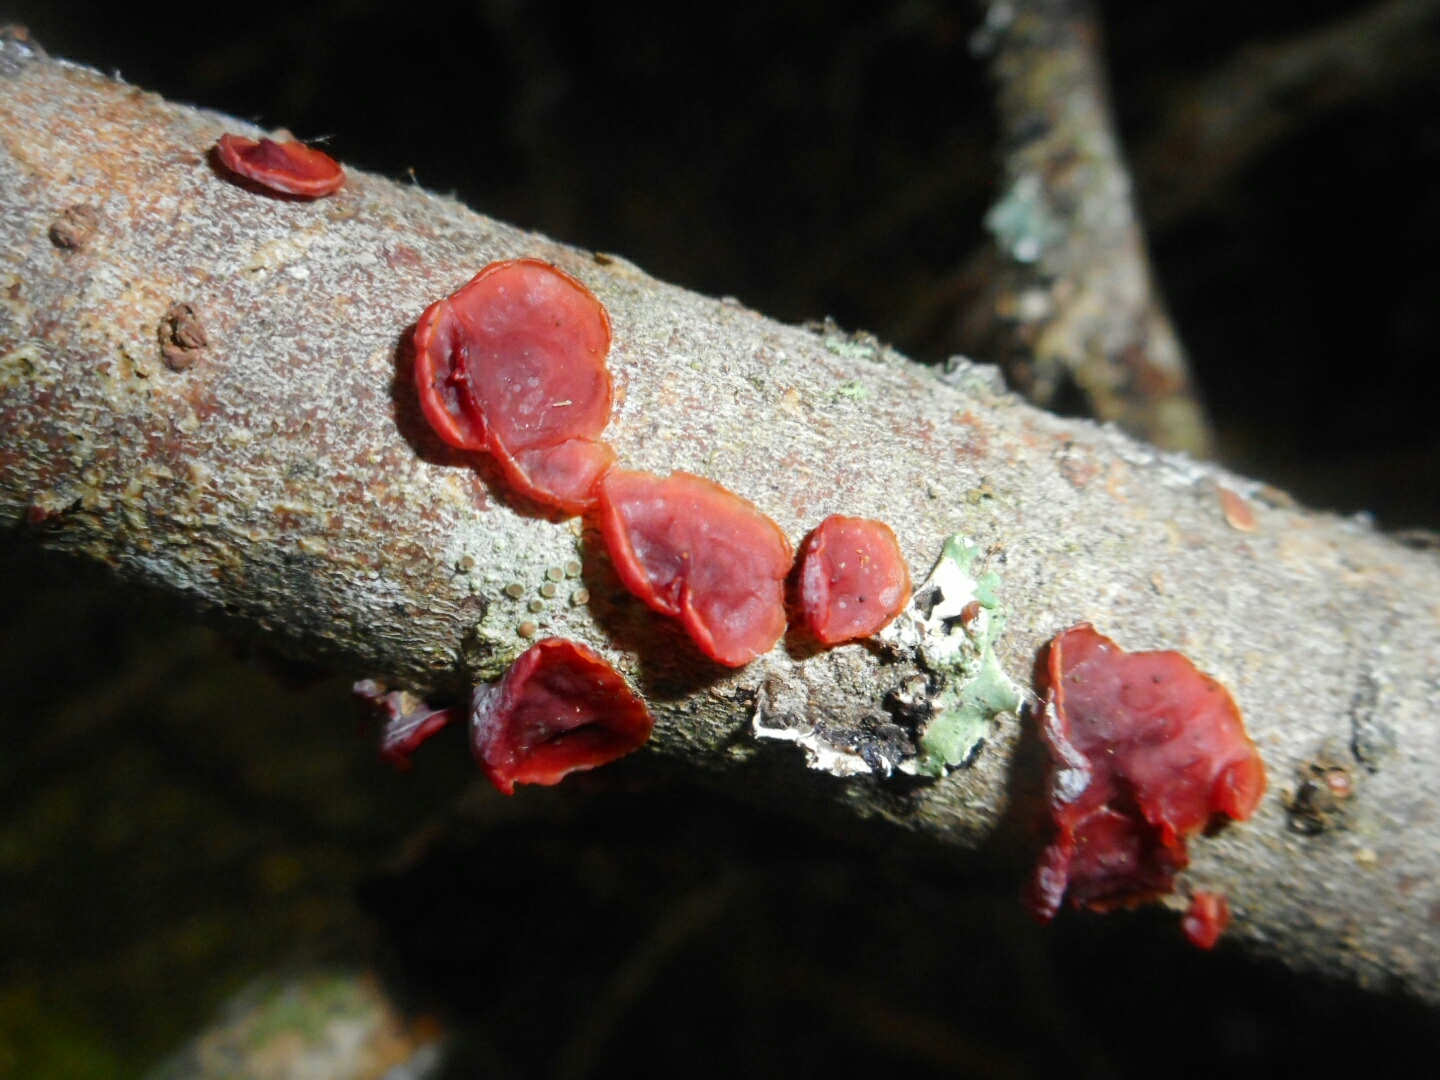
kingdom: Fungi
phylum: Basidiomycota
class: Agaricomycetes
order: Corticiales
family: Vuilleminiaceae
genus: Cytidia
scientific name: Cytidia salicina
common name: Scarlet splash
